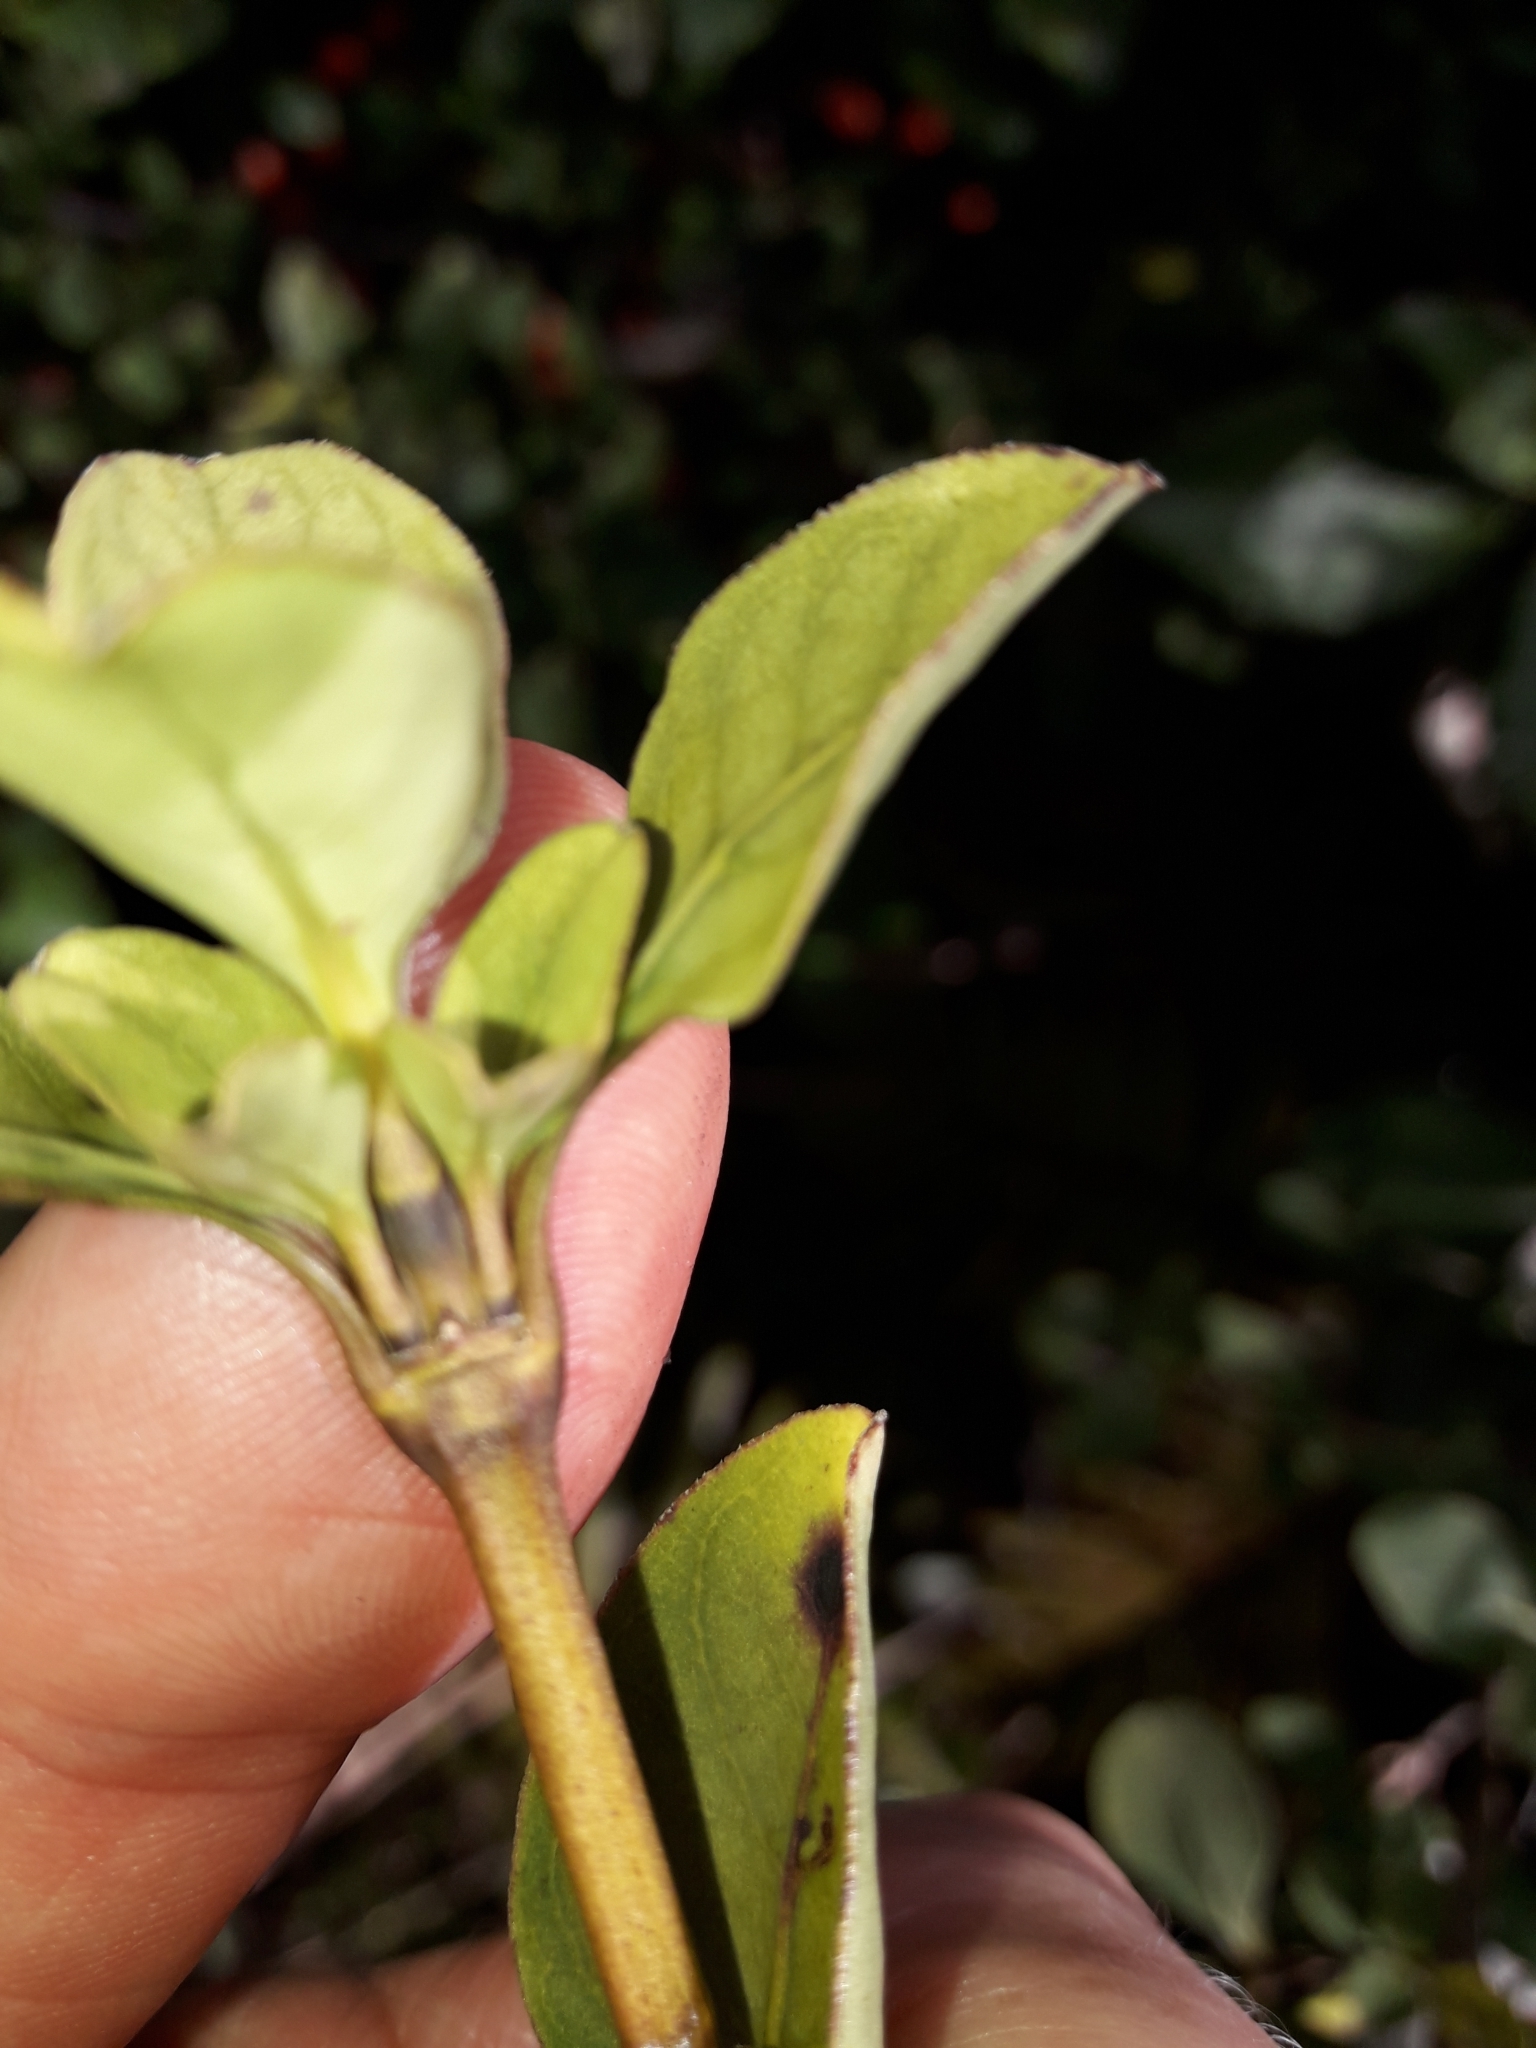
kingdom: Plantae
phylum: Tracheophyta
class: Magnoliopsida
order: Gentianales
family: Rubiaceae
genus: Coprosma
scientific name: Coprosma foetidissima
